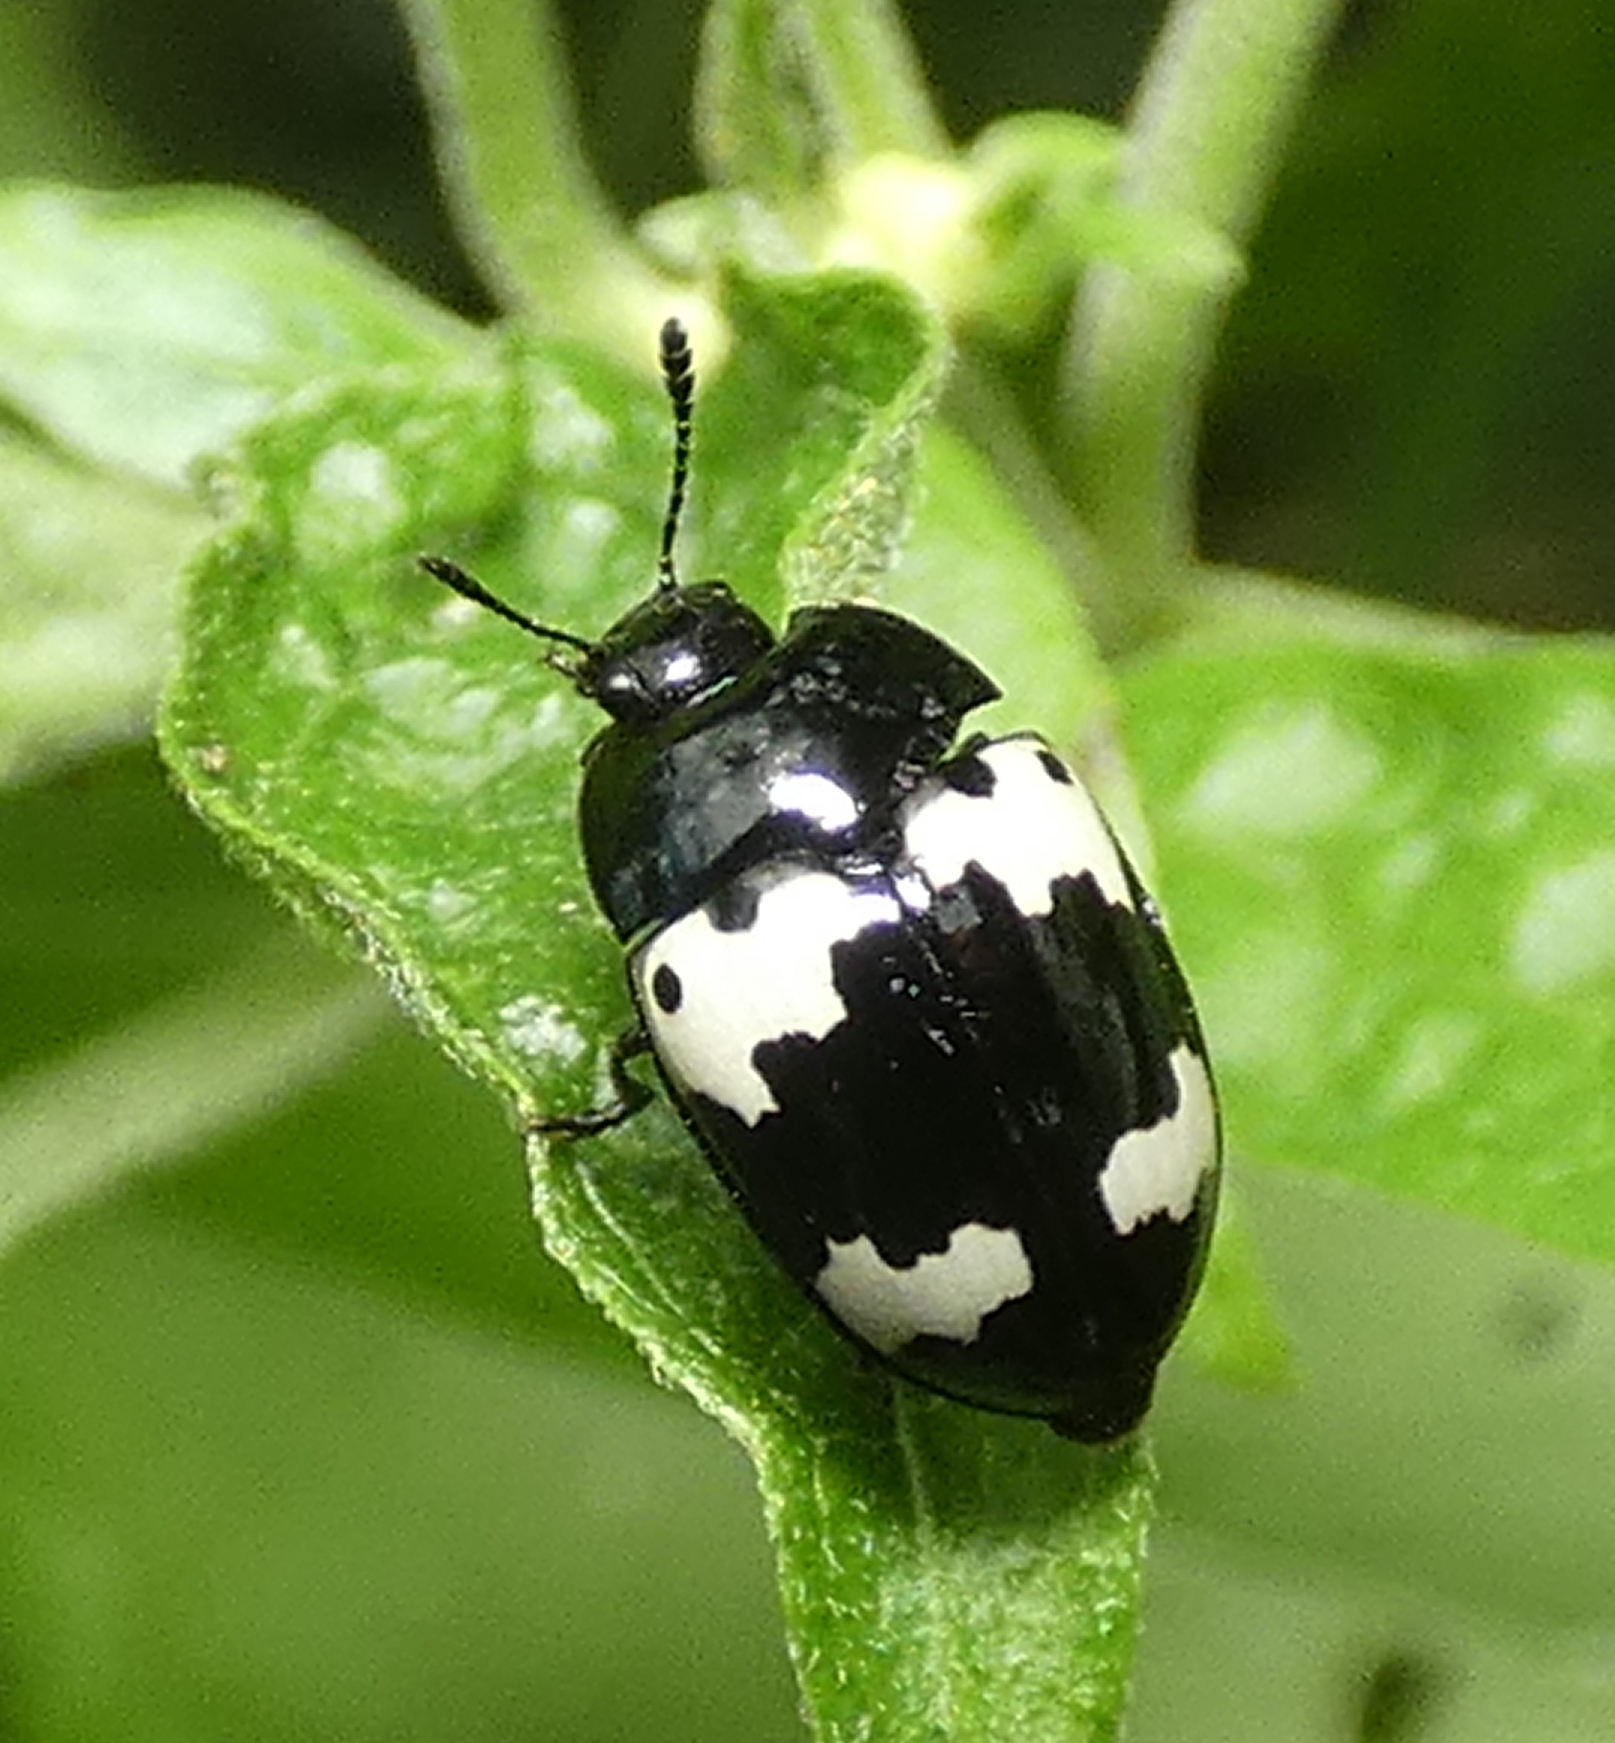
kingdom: Animalia
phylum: Arthropoda
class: Insecta
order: Coleoptera
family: Erotylidae
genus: Iphiclus
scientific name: Iphiclus
